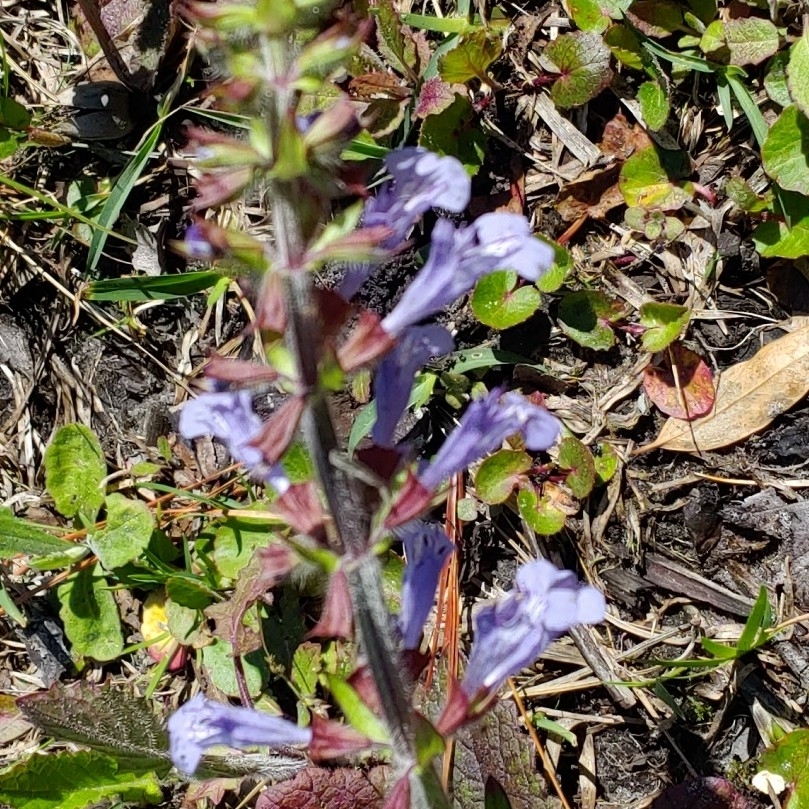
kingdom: Plantae
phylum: Tracheophyta
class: Magnoliopsida
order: Lamiales
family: Lamiaceae
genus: Salvia
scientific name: Salvia lyrata
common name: Cancerweed
